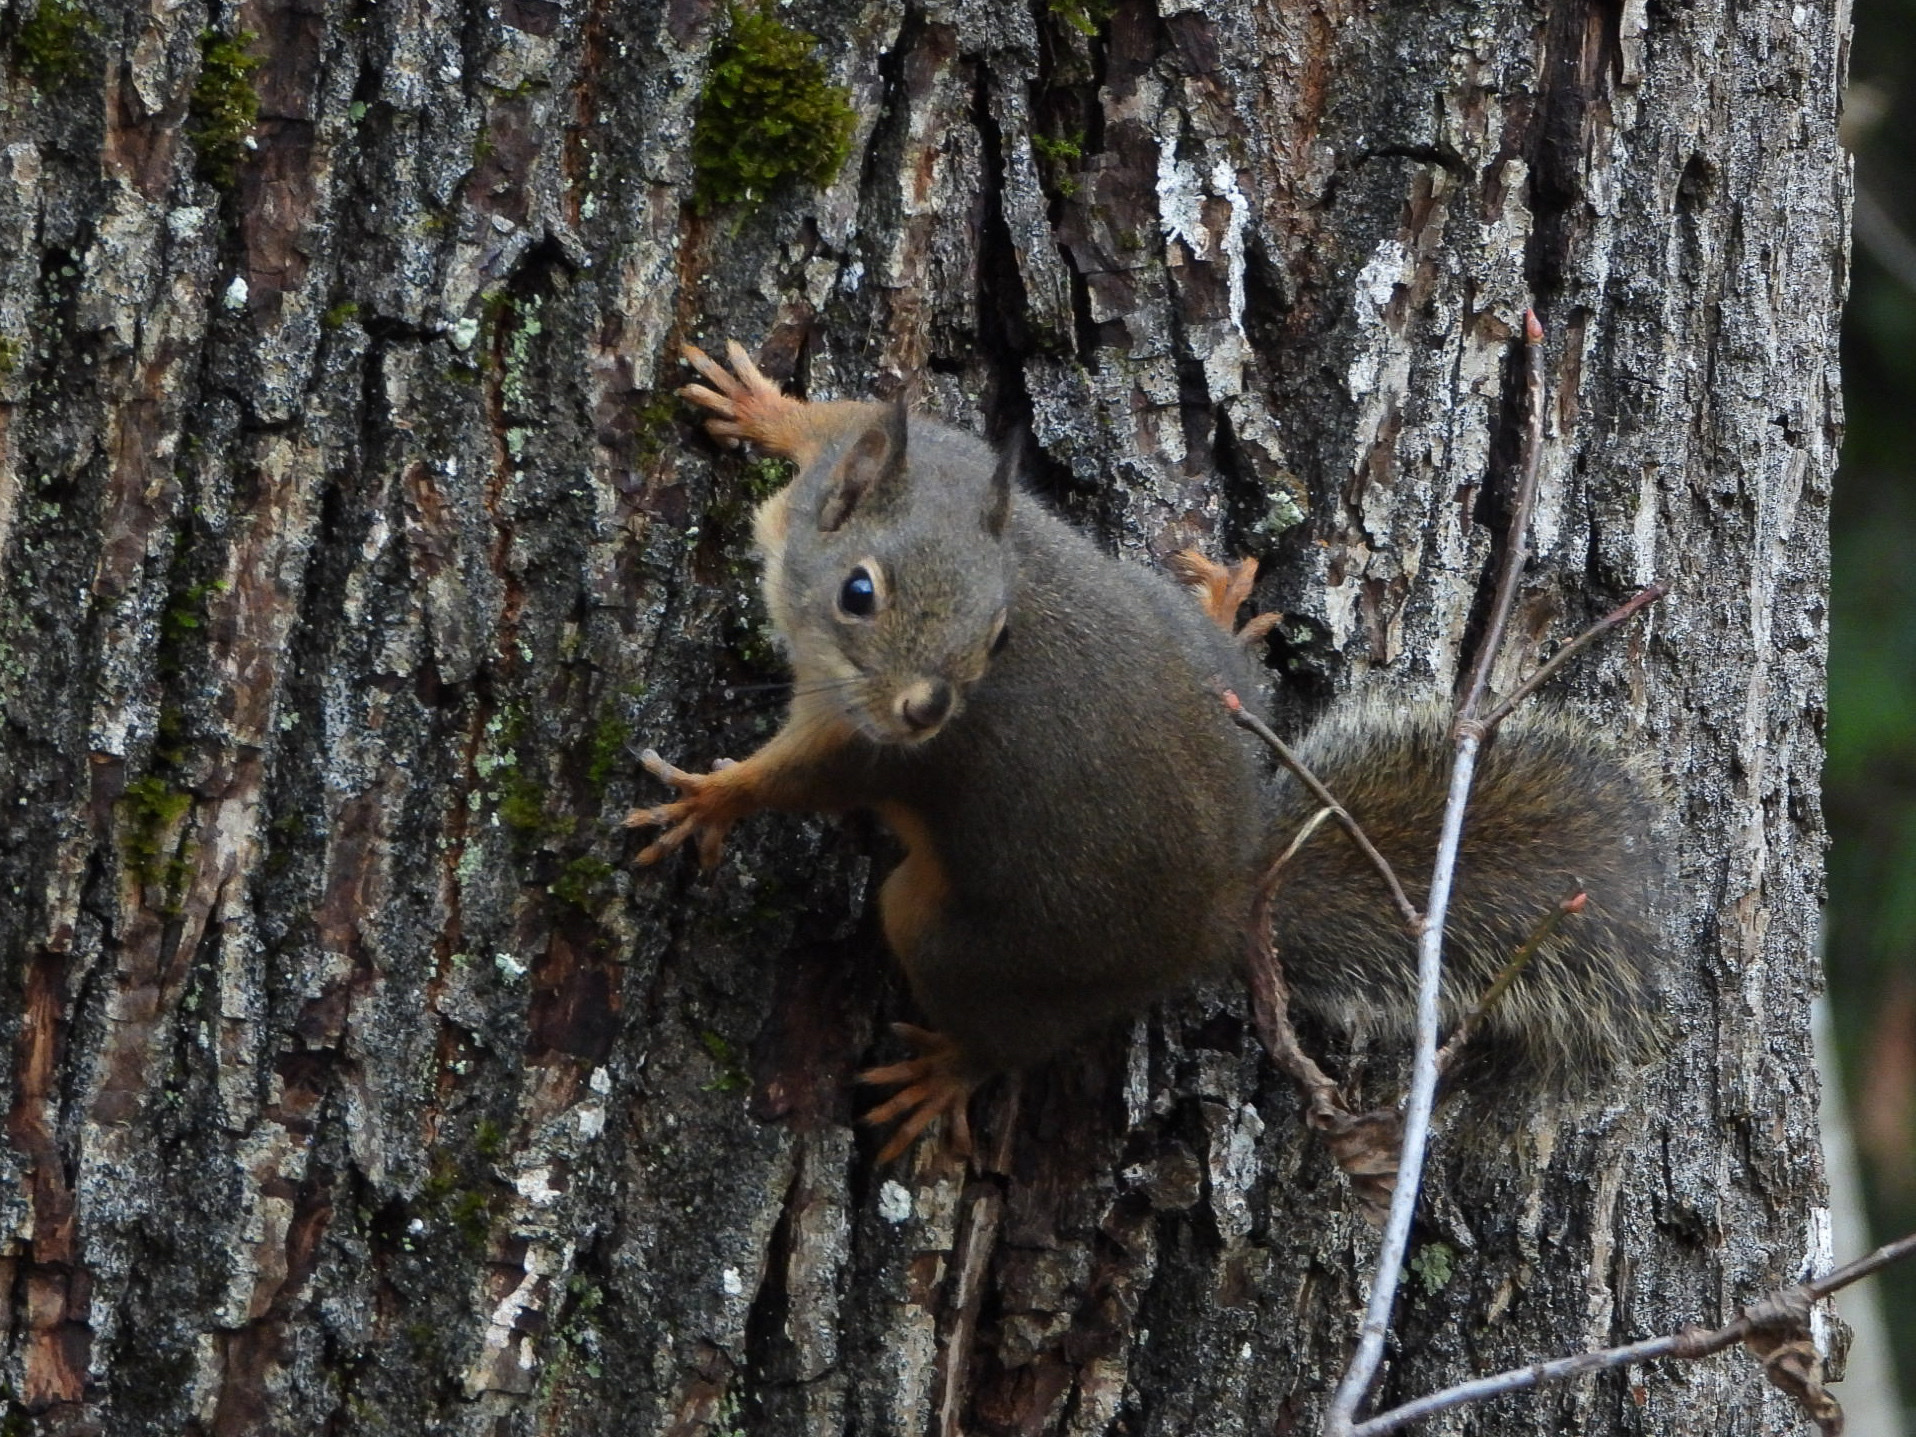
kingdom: Animalia
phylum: Chordata
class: Mammalia
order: Rodentia
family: Sciuridae
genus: Tamiasciurus
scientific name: Tamiasciurus douglasii
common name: Douglas's squirrel
